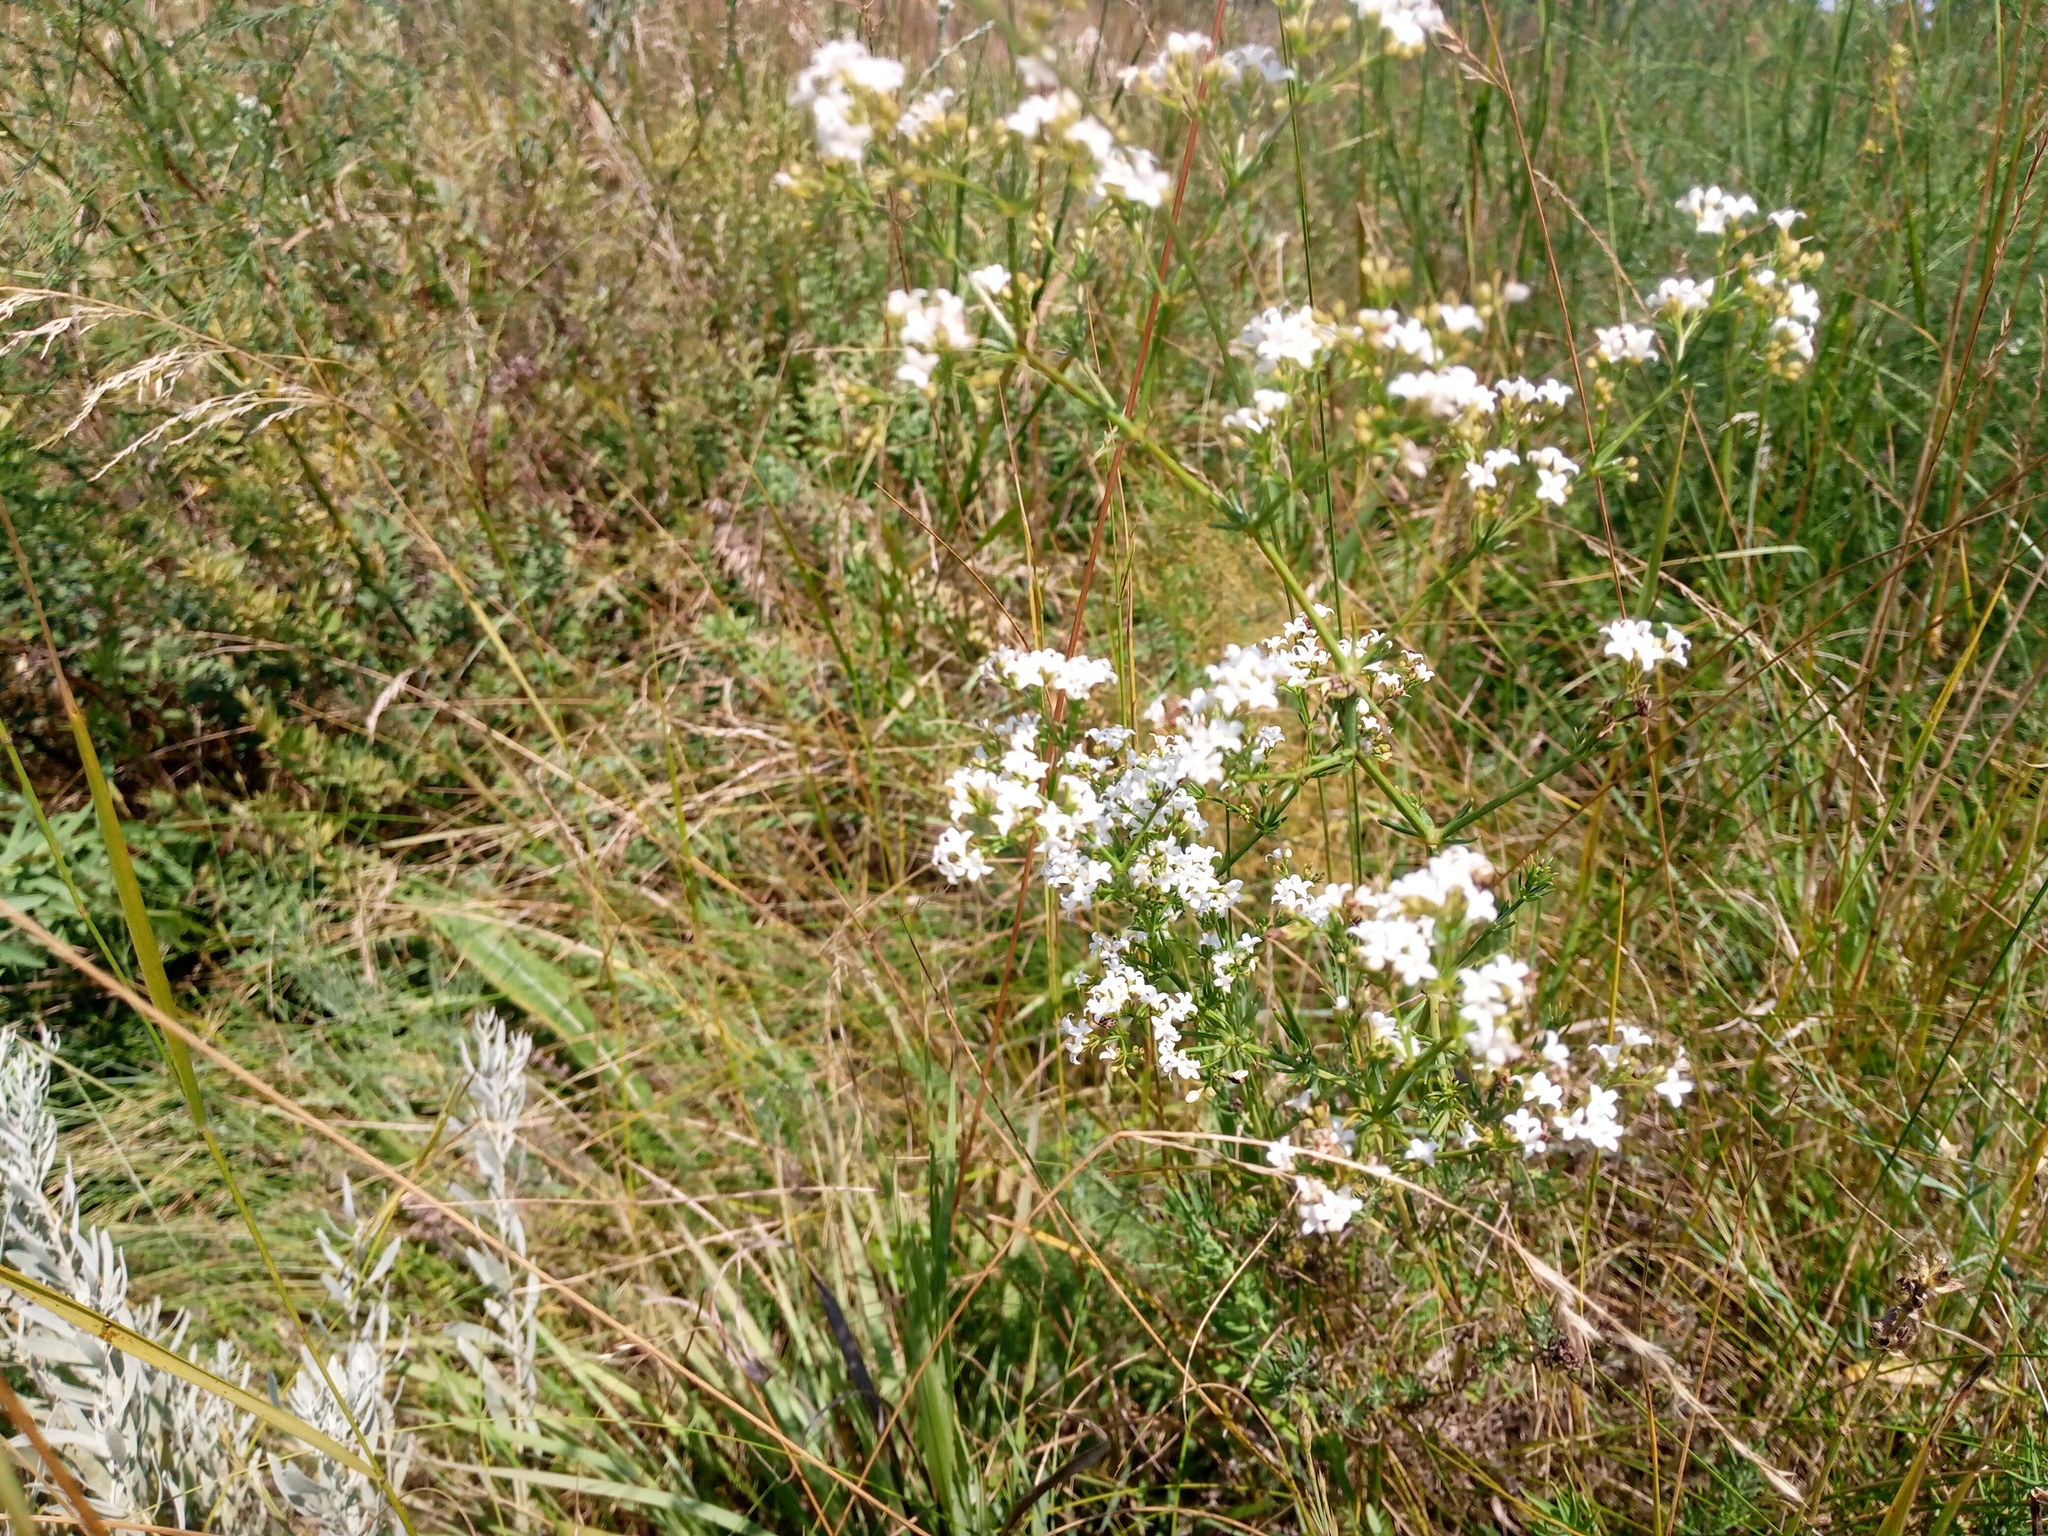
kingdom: Plantae
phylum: Tracheophyta
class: Magnoliopsida
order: Gentianales
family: Rubiaceae
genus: Galium
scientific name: Galium octonarium
